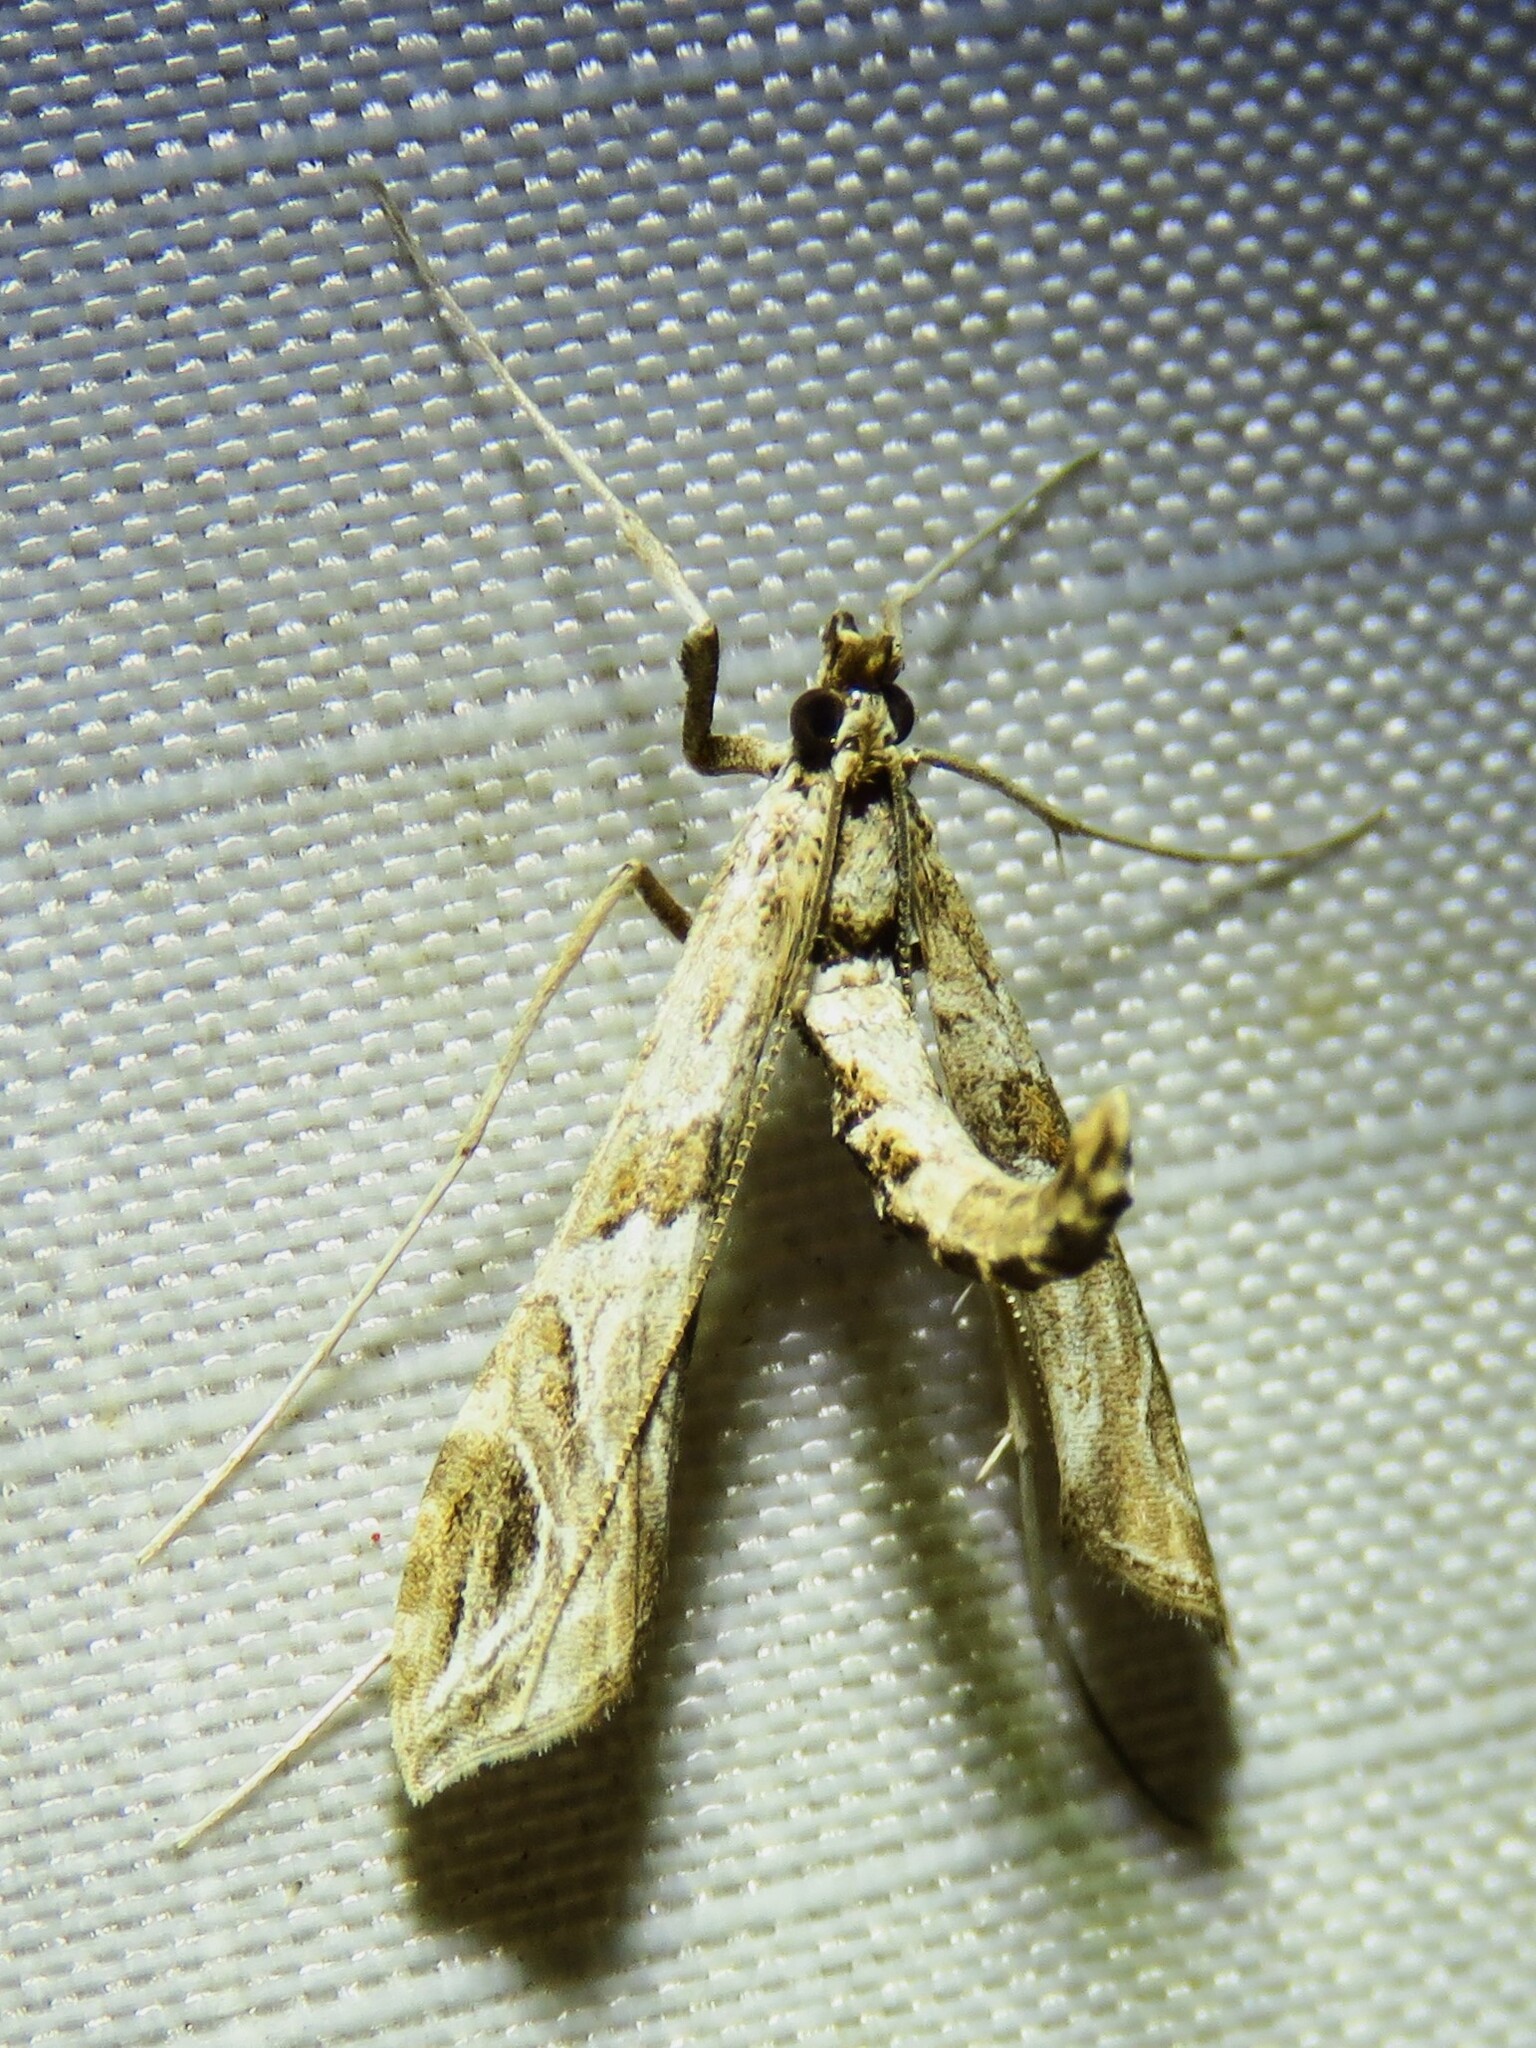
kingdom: Animalia
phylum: Arthropoda
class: Insecta
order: Lepidoptera
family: Crambidae
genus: Lineodes
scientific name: Lineodes interrupta
